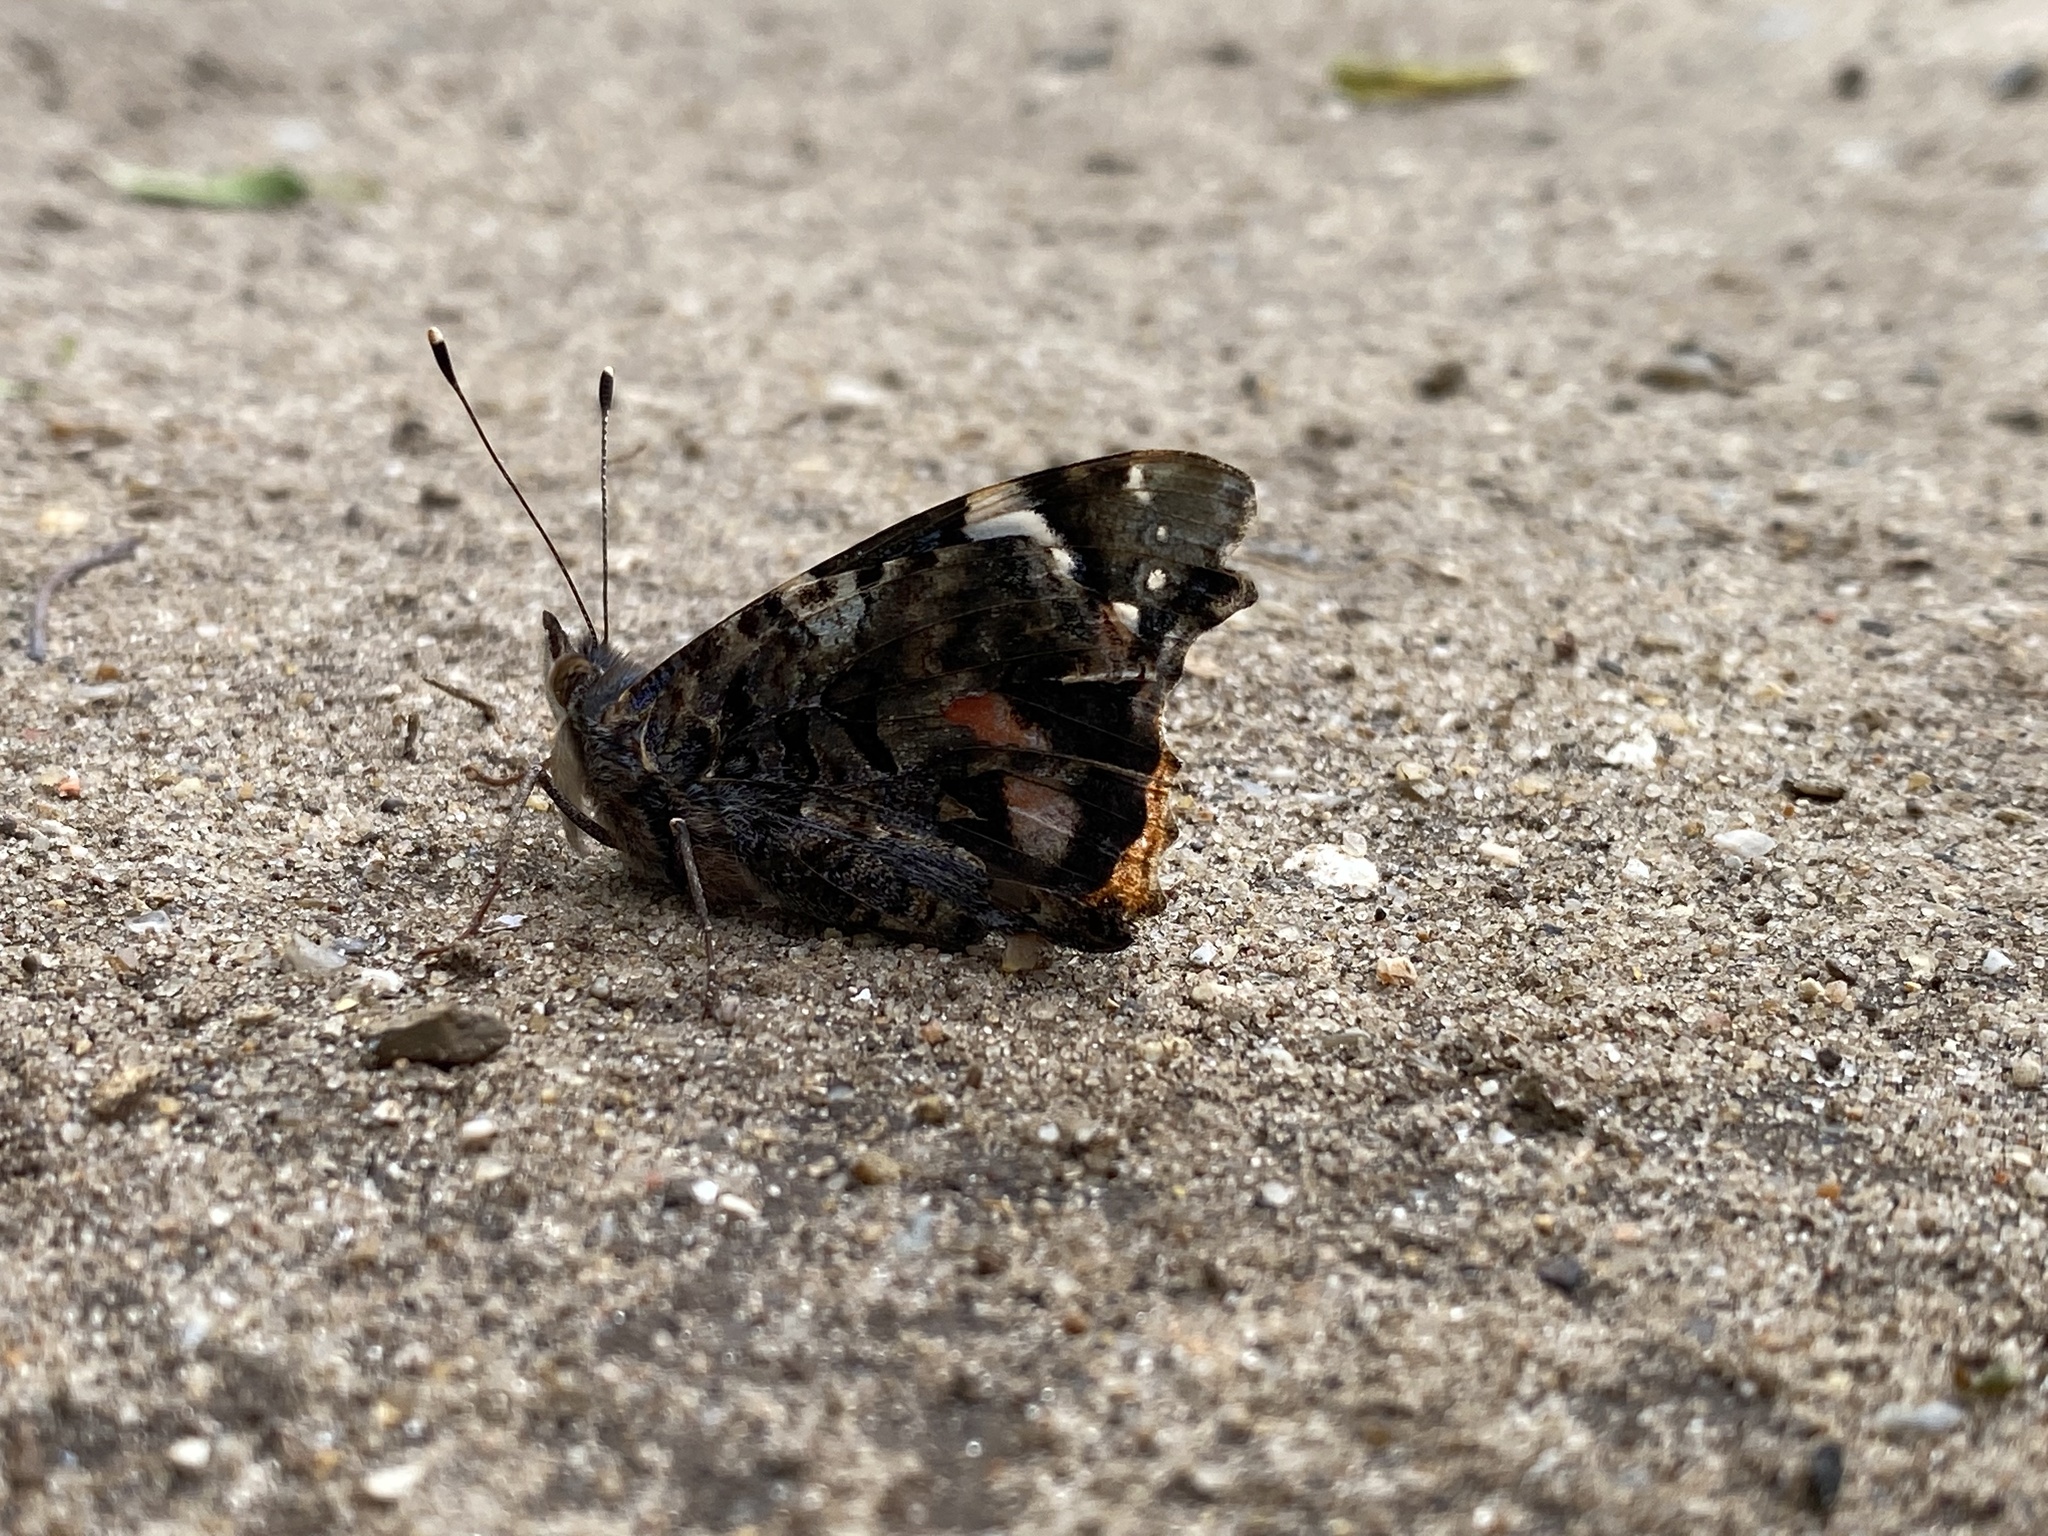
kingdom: Animalia
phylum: Arthropoda
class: Insecta
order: Lepidoptera
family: Nymphalidae
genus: Vanessa
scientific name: Vanessa atalanta
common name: Red admiral
